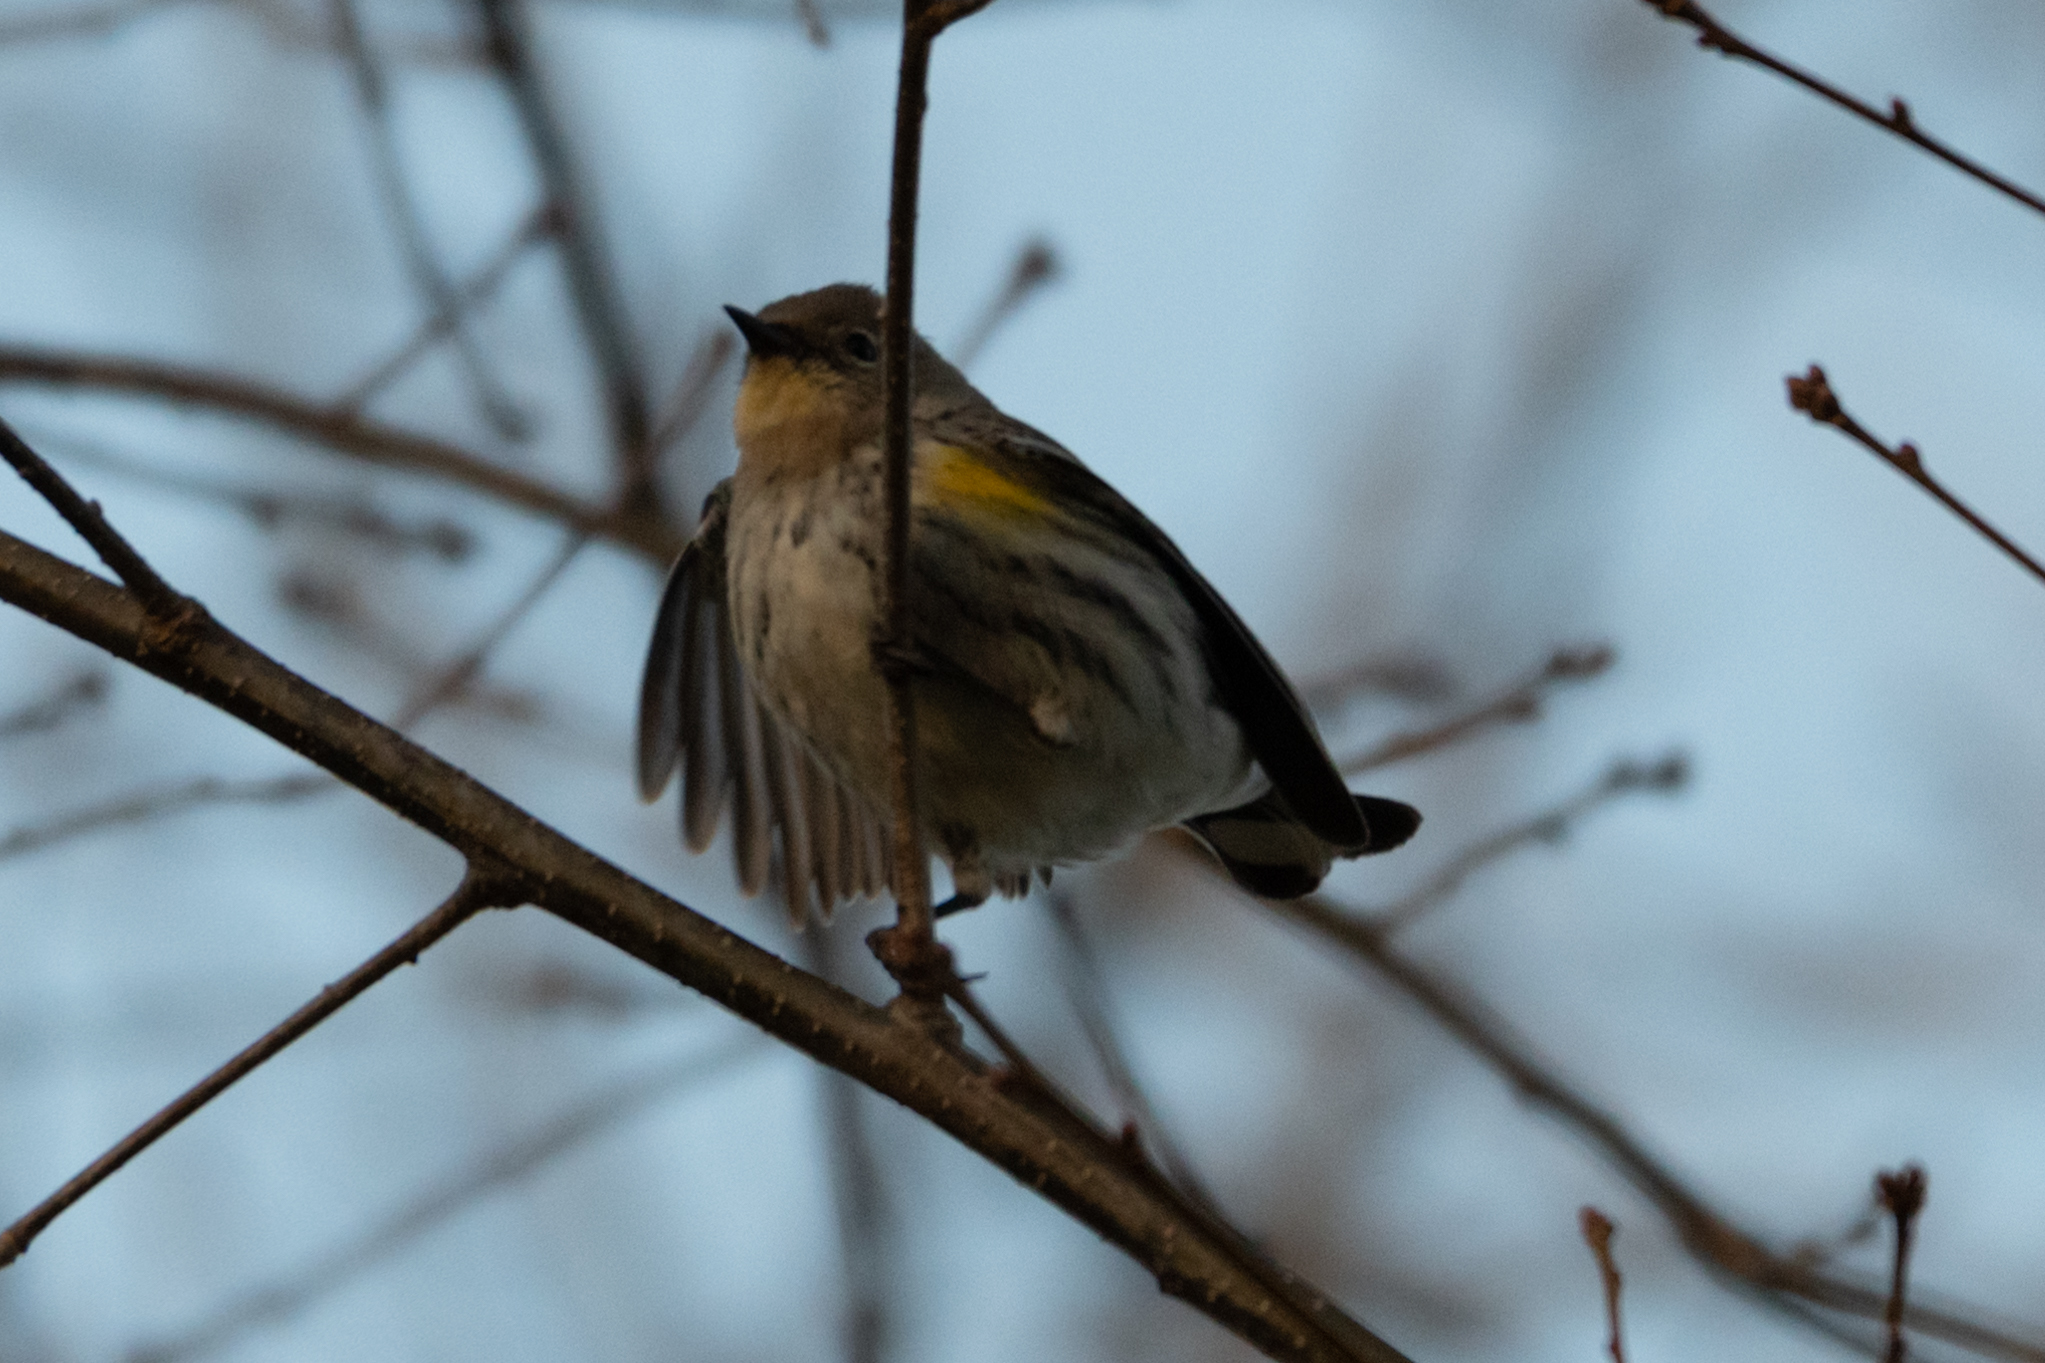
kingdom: Animalia
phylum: Chordata
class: Aves
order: Passeriformes
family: Parulidae
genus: Setophaga
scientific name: Setophaga coronata
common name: Myrtle warbler
